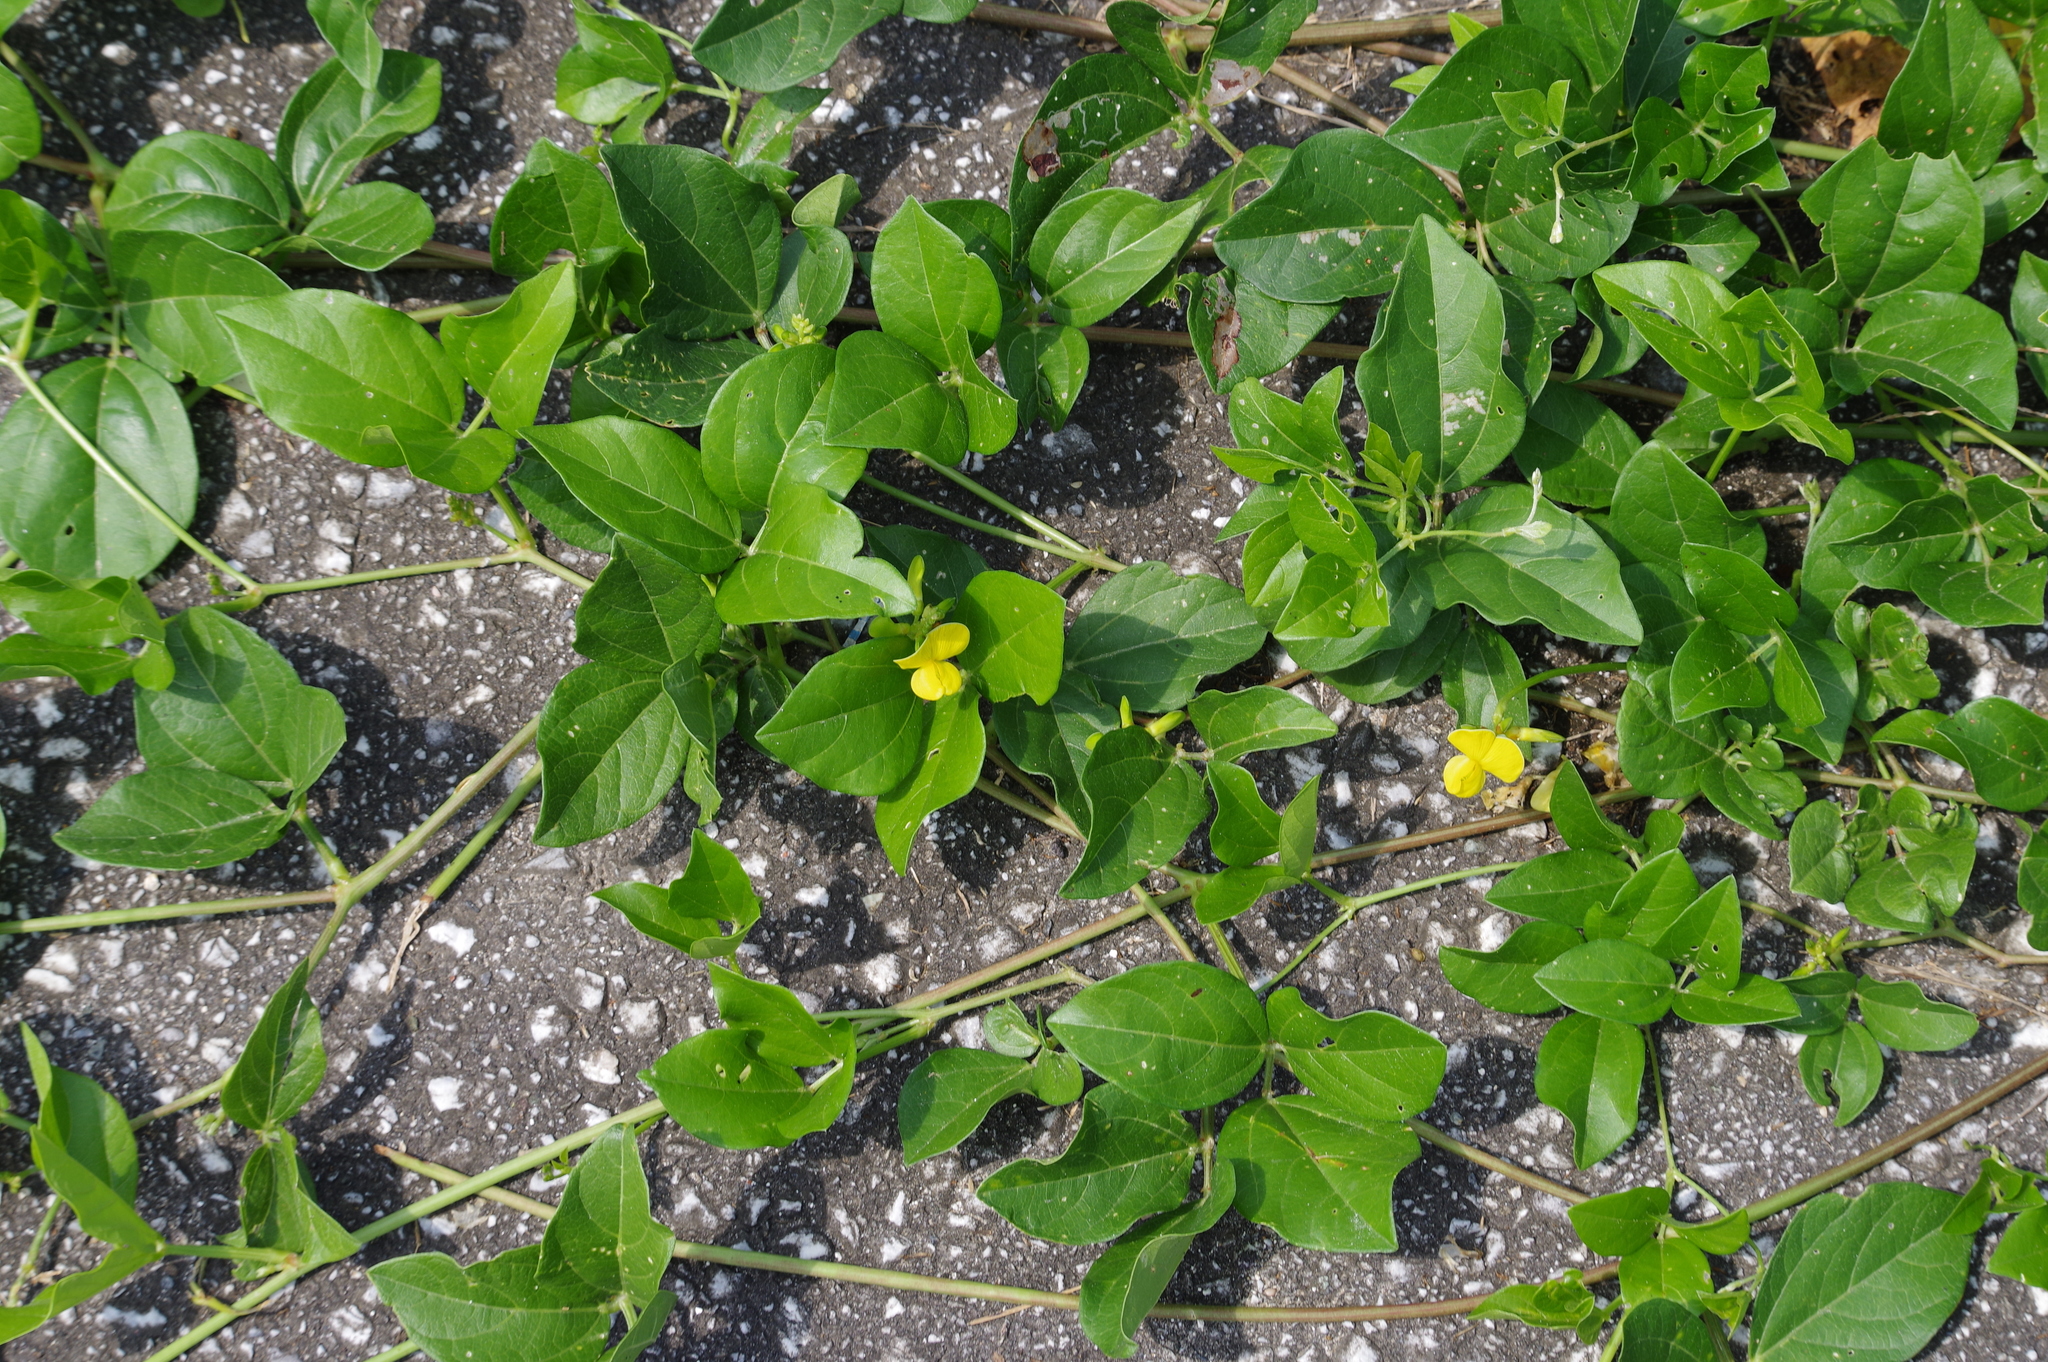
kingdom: Plantae
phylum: Tracheophyta
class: Magnoliopsida
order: Fabales
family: Fabaceae
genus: Vigna
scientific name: Vigna luteola
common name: Hairypod cowpea
